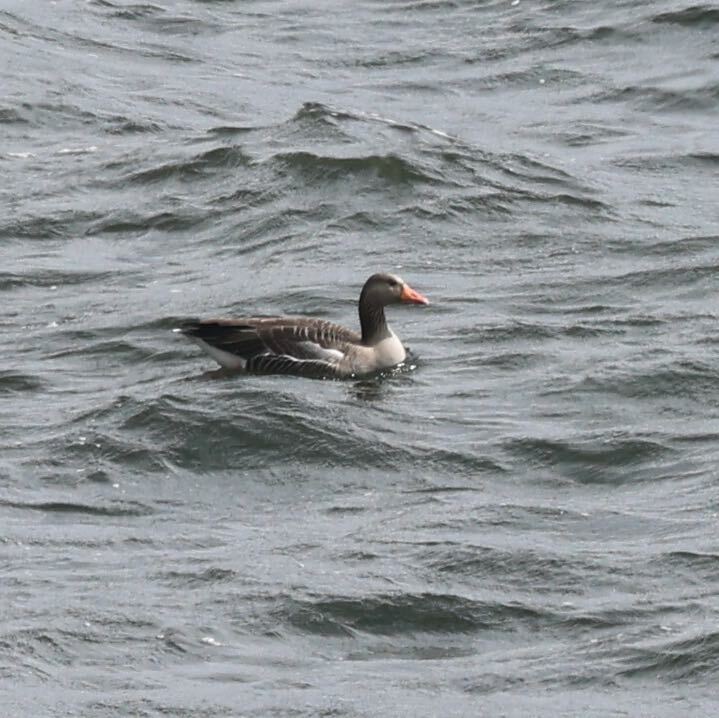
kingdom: Animalia
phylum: Chordata
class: Aves
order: Anseriformes
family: Anatidae
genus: Anser
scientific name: Anser anser
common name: Greylag goose
